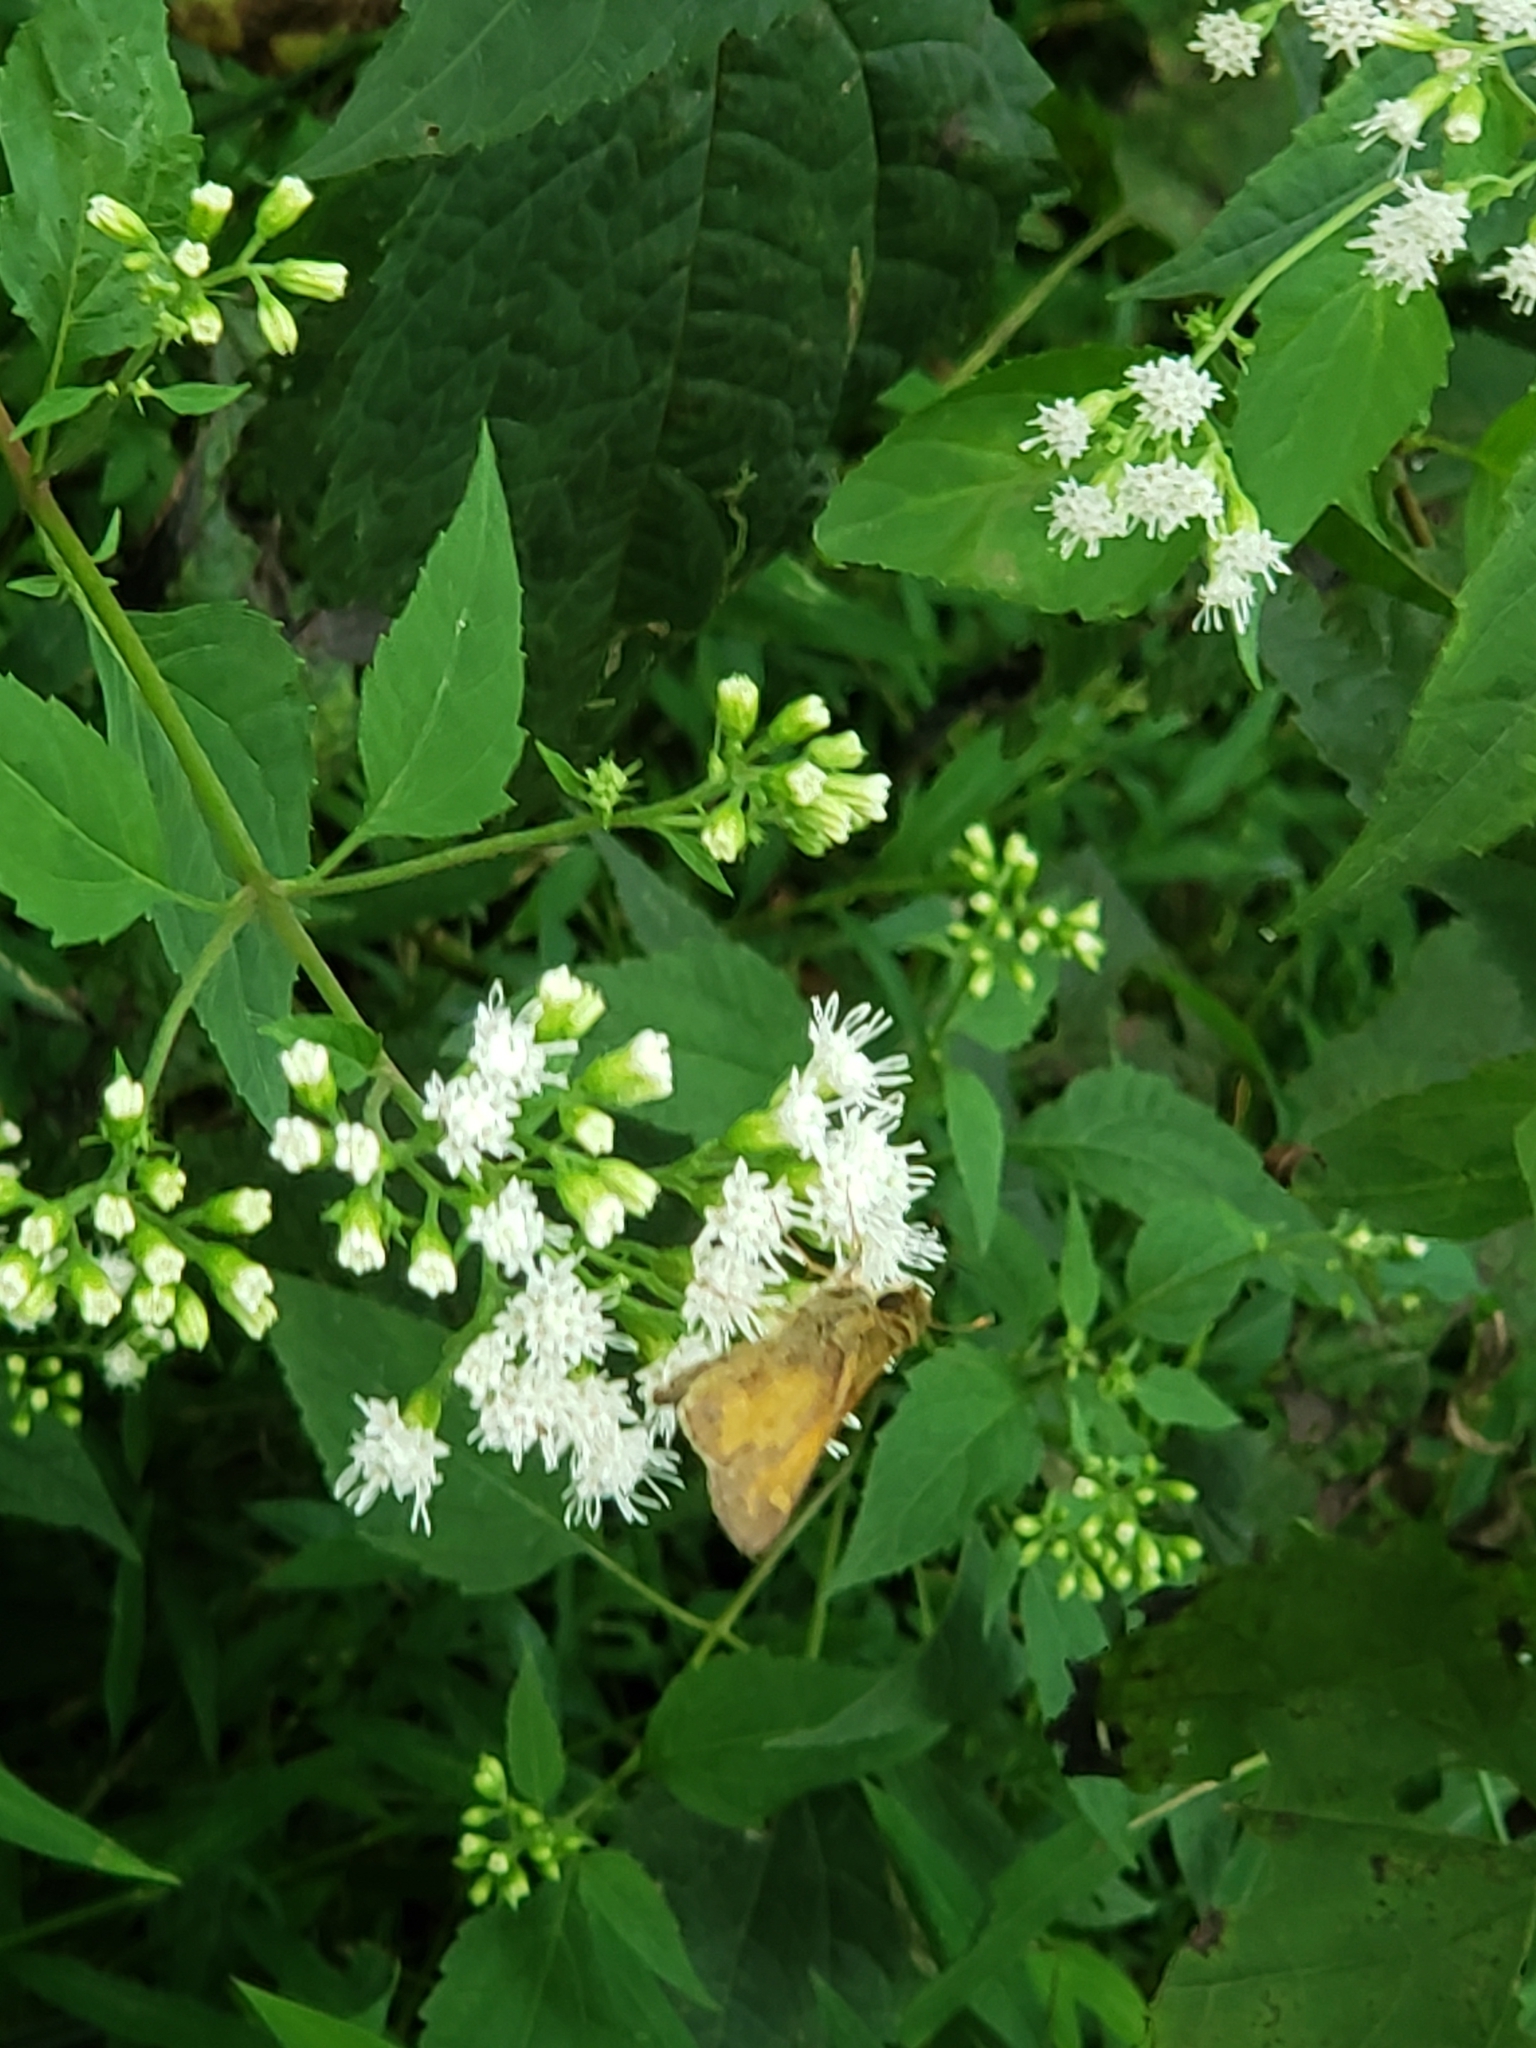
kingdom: Animalia
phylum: Arthropoda
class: Insecta
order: Lepidoptera
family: Hesperiidae
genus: Atalopedes
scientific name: Atalopedes
